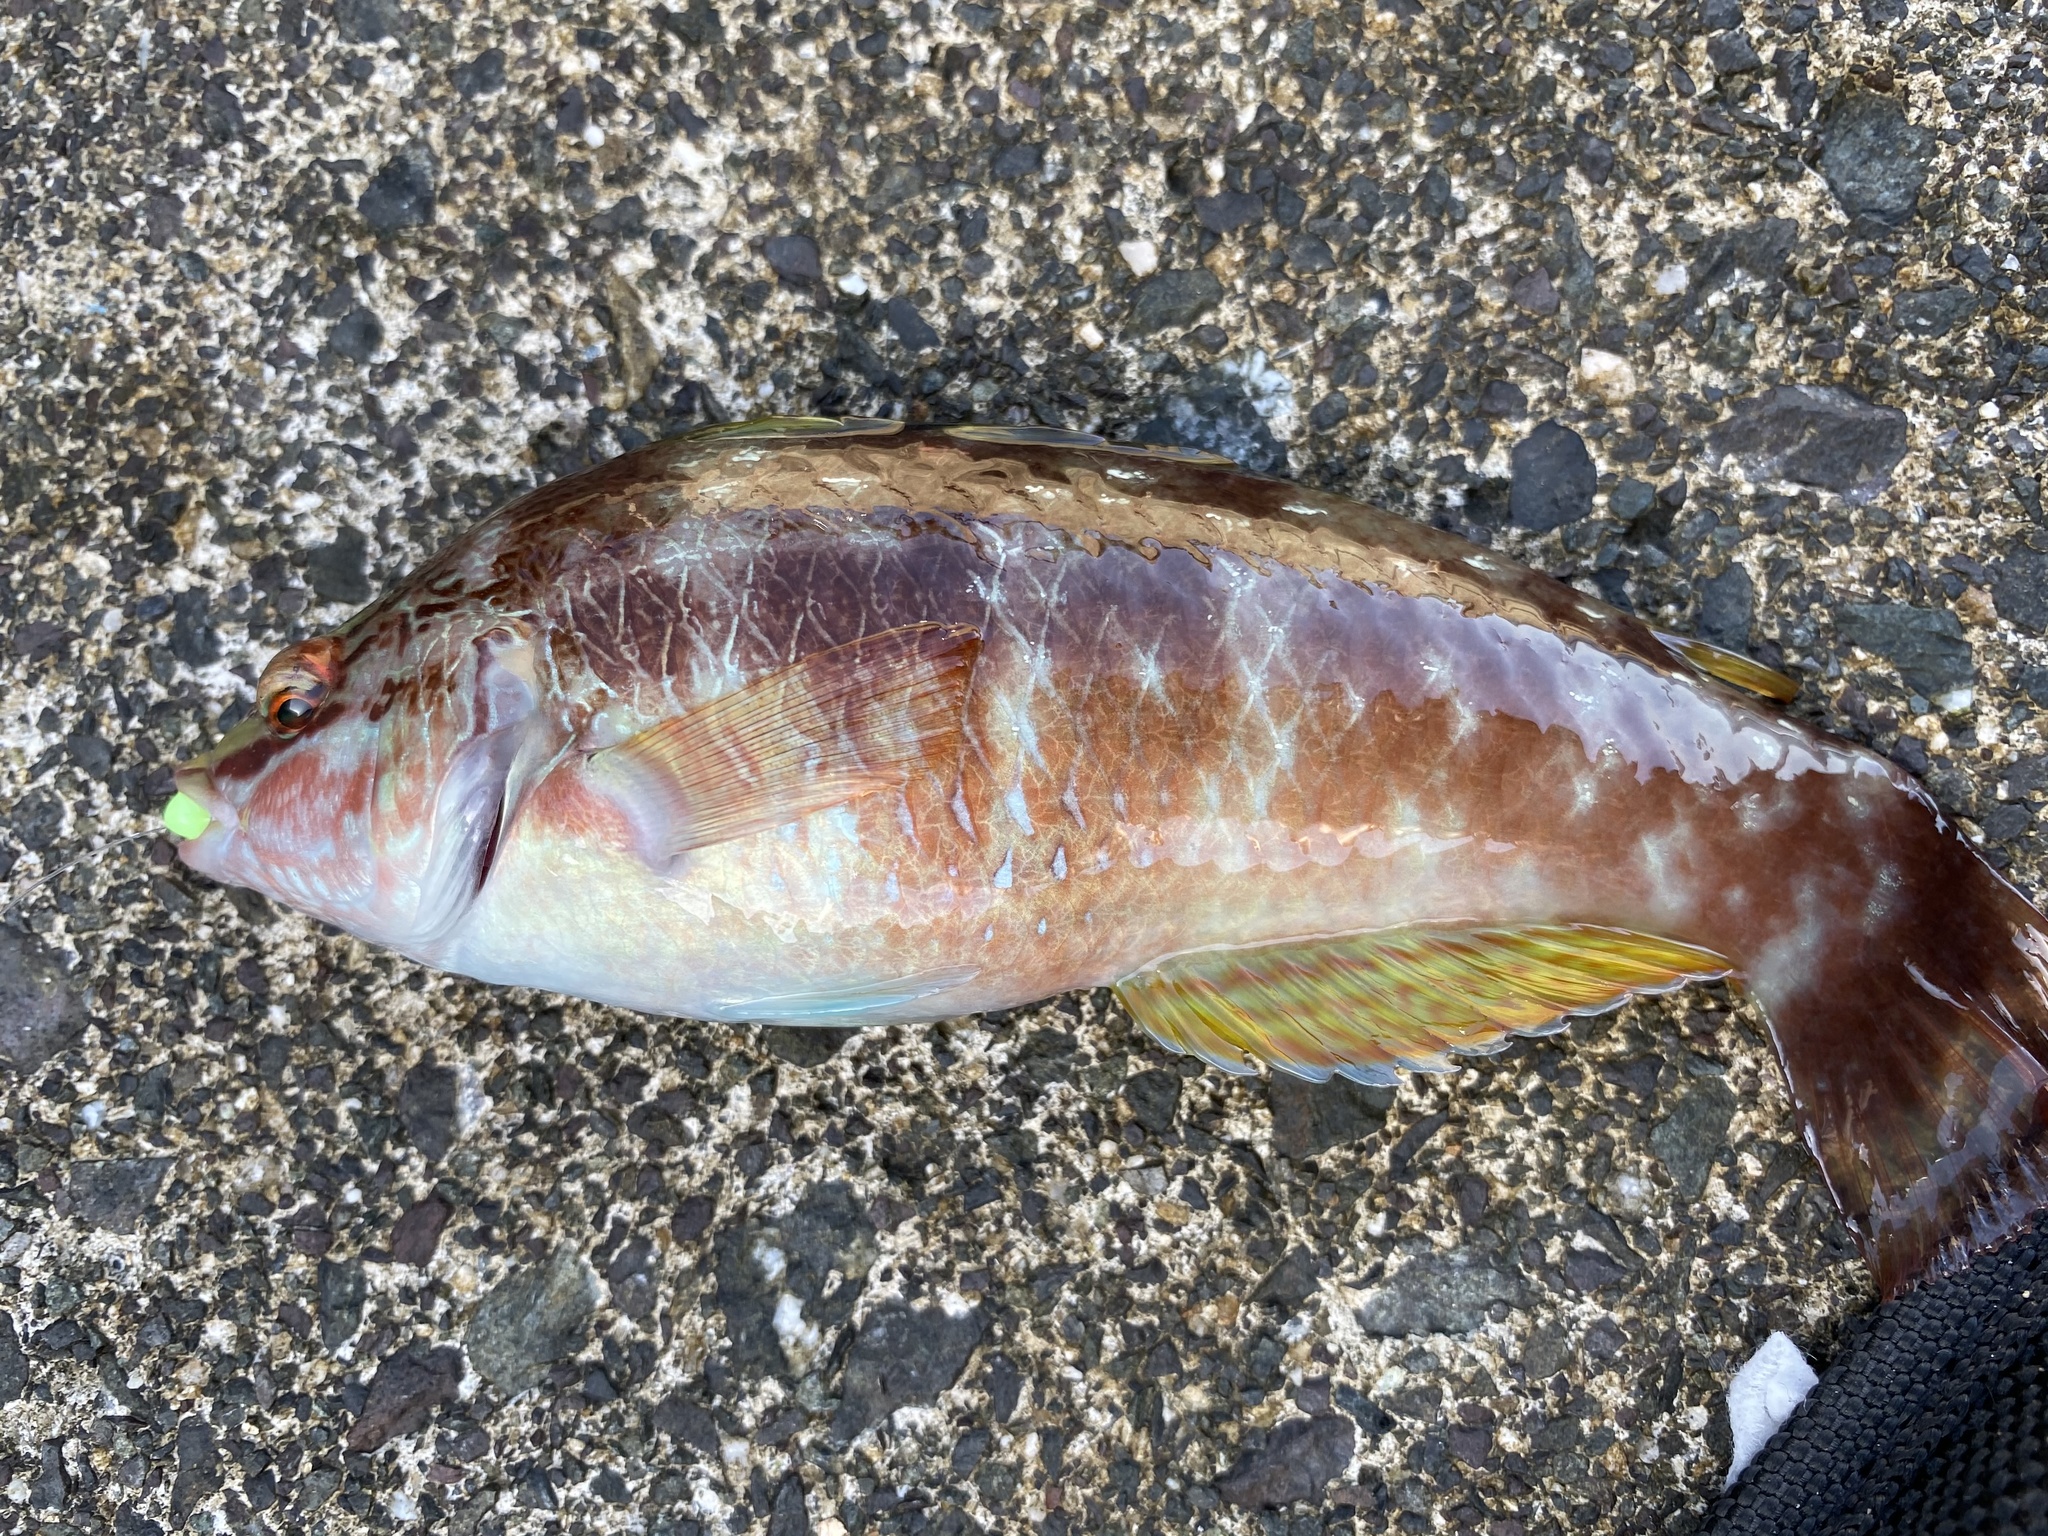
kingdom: Animalia
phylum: Chordata
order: Perciformes
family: Labridae
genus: Pseudolabrus
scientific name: Pseudolabrus sieboldi
